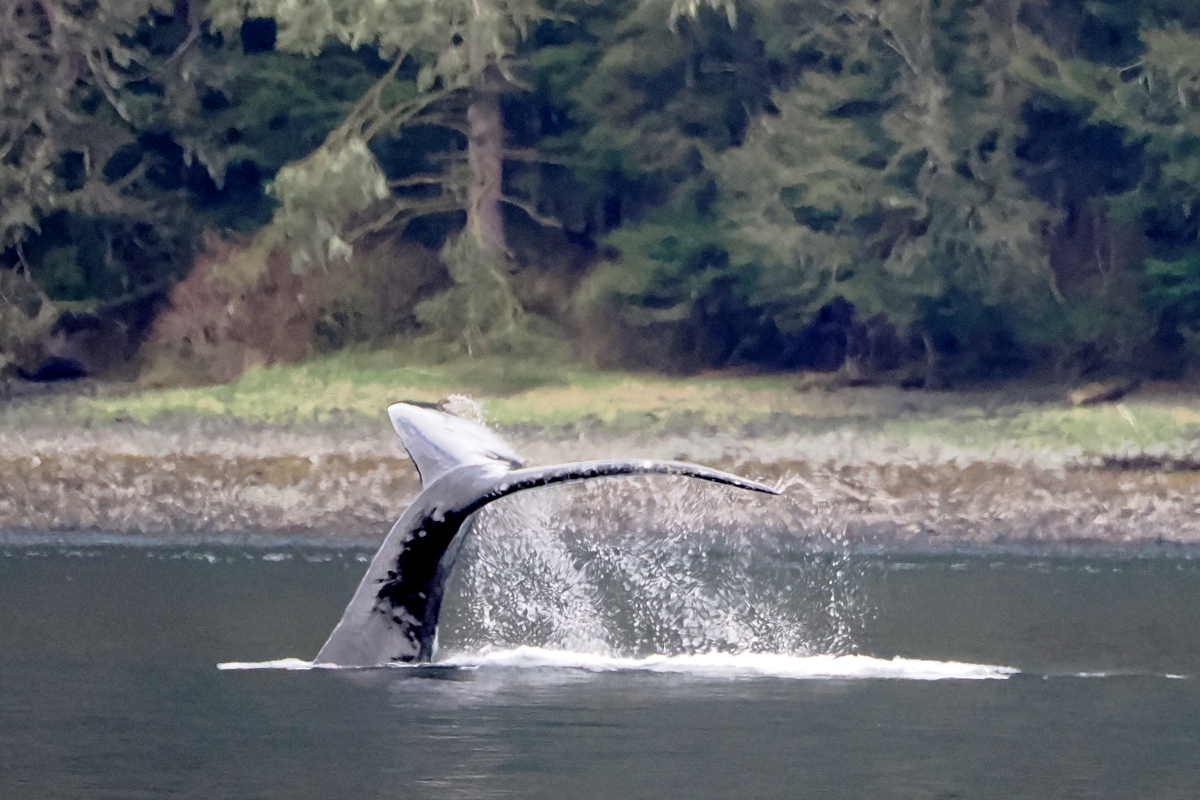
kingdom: Animalia
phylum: Chordata
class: Mammalia
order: Cetacea
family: Balaenopteridae
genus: Megaptera
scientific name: Megaptera novaeangliae
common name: Humpback whale
